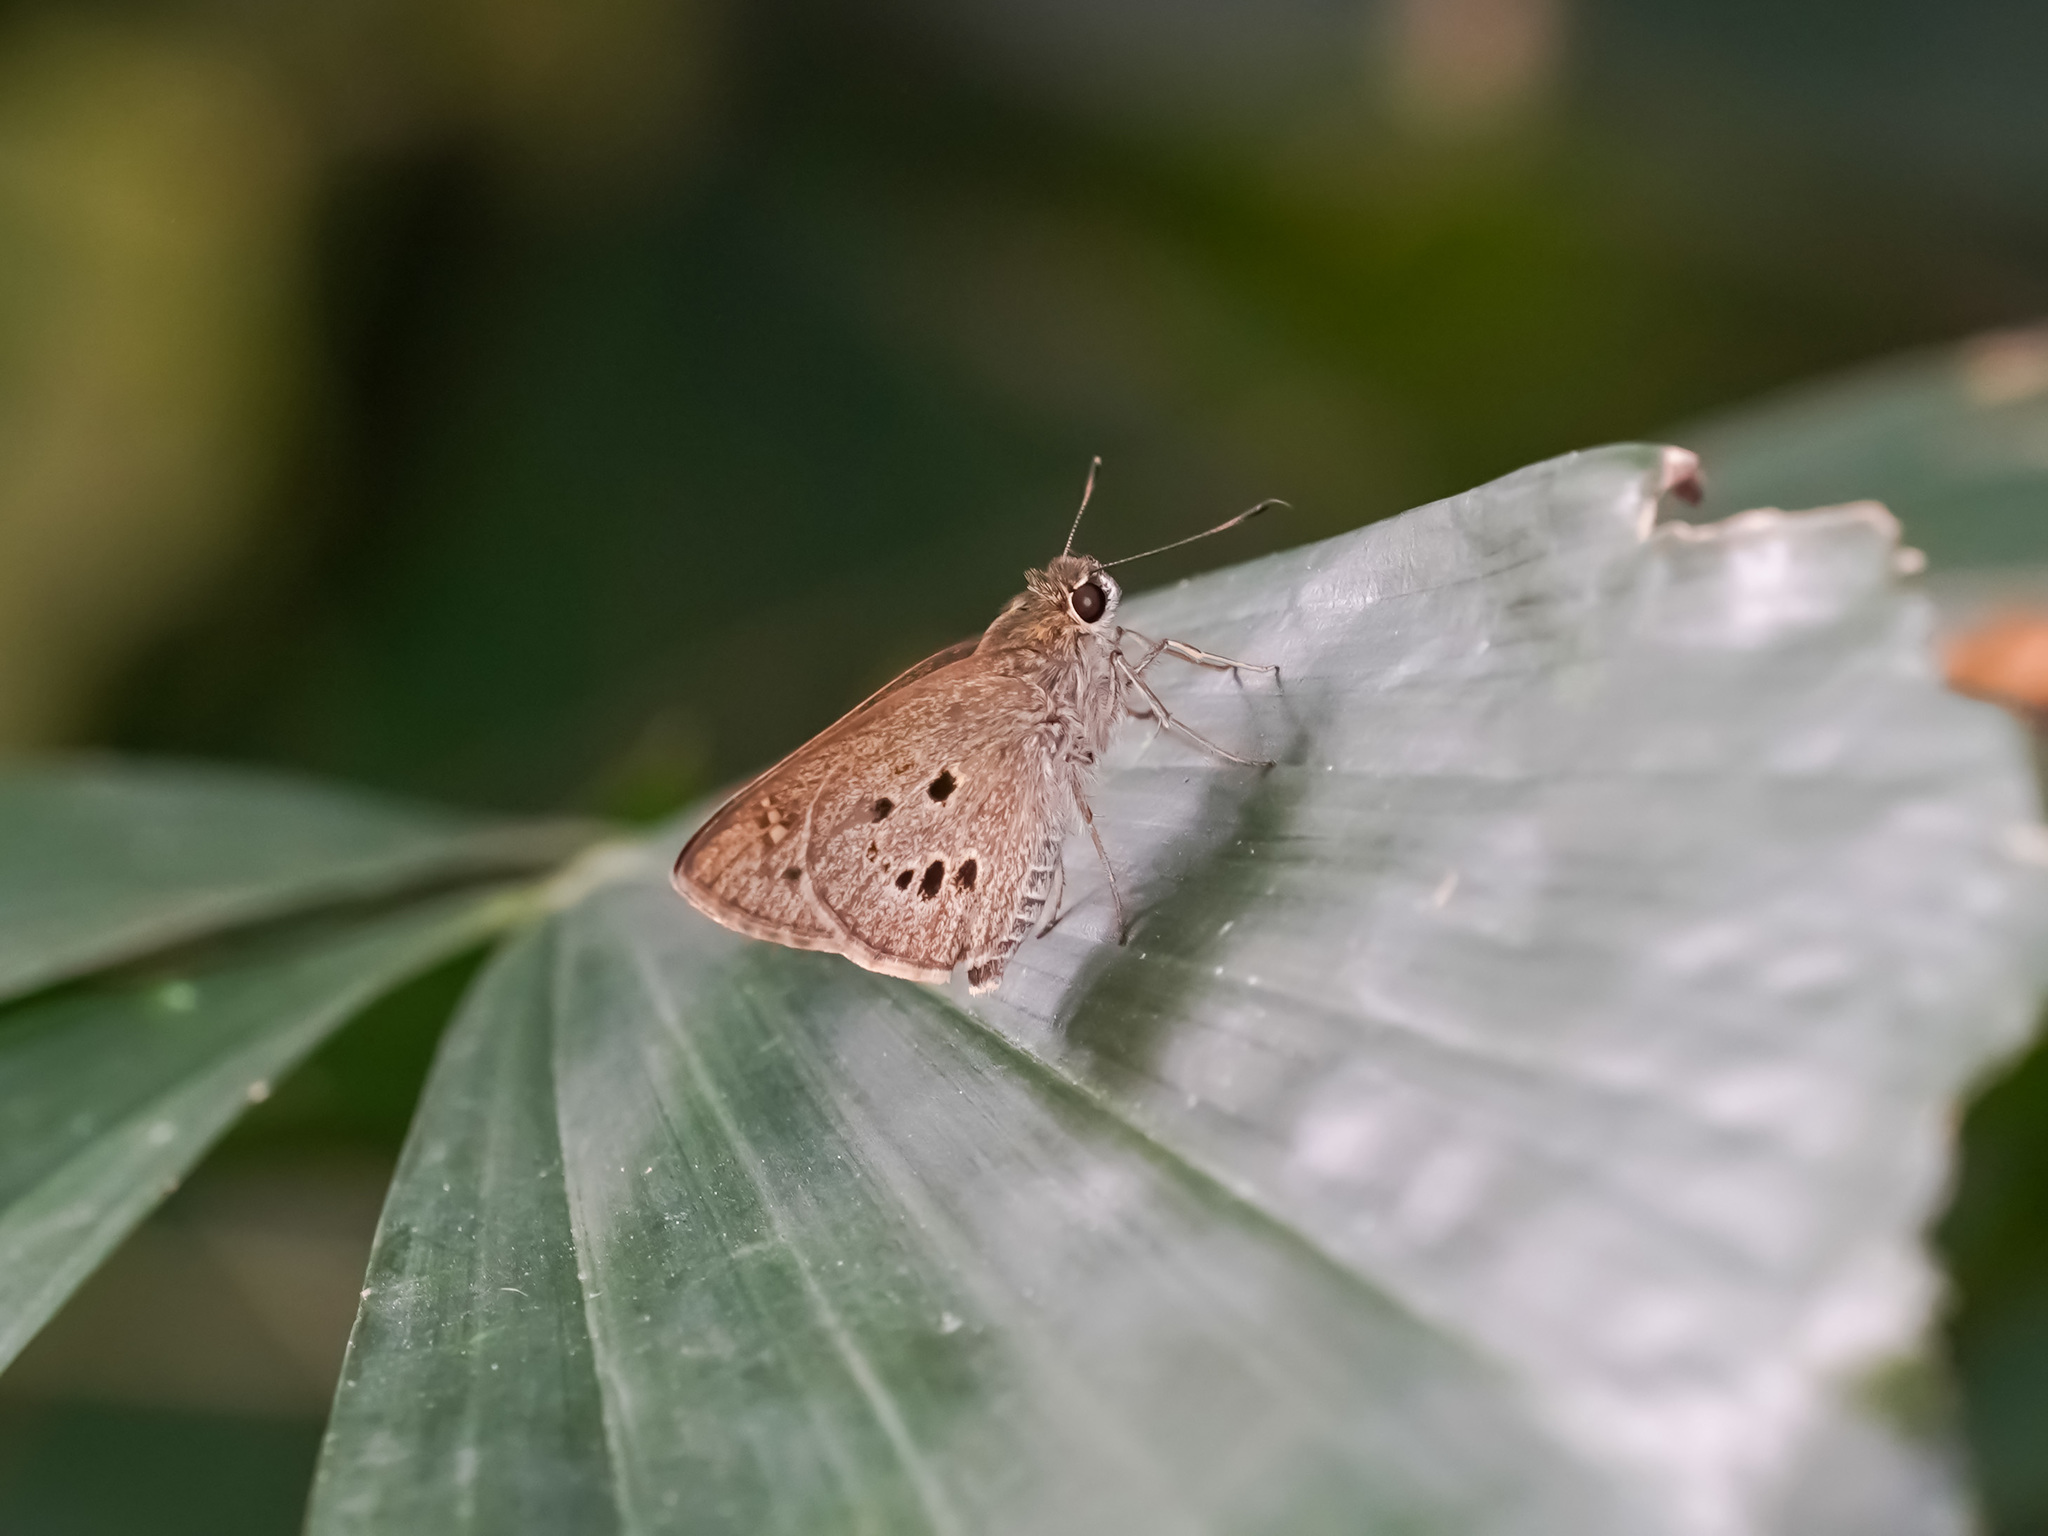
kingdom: Animalia
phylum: Arthropoda
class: Insecta
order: Lepidoptera
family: Hesperiidae
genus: Suastus
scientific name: Suastus gremius
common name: Indian palm bob
